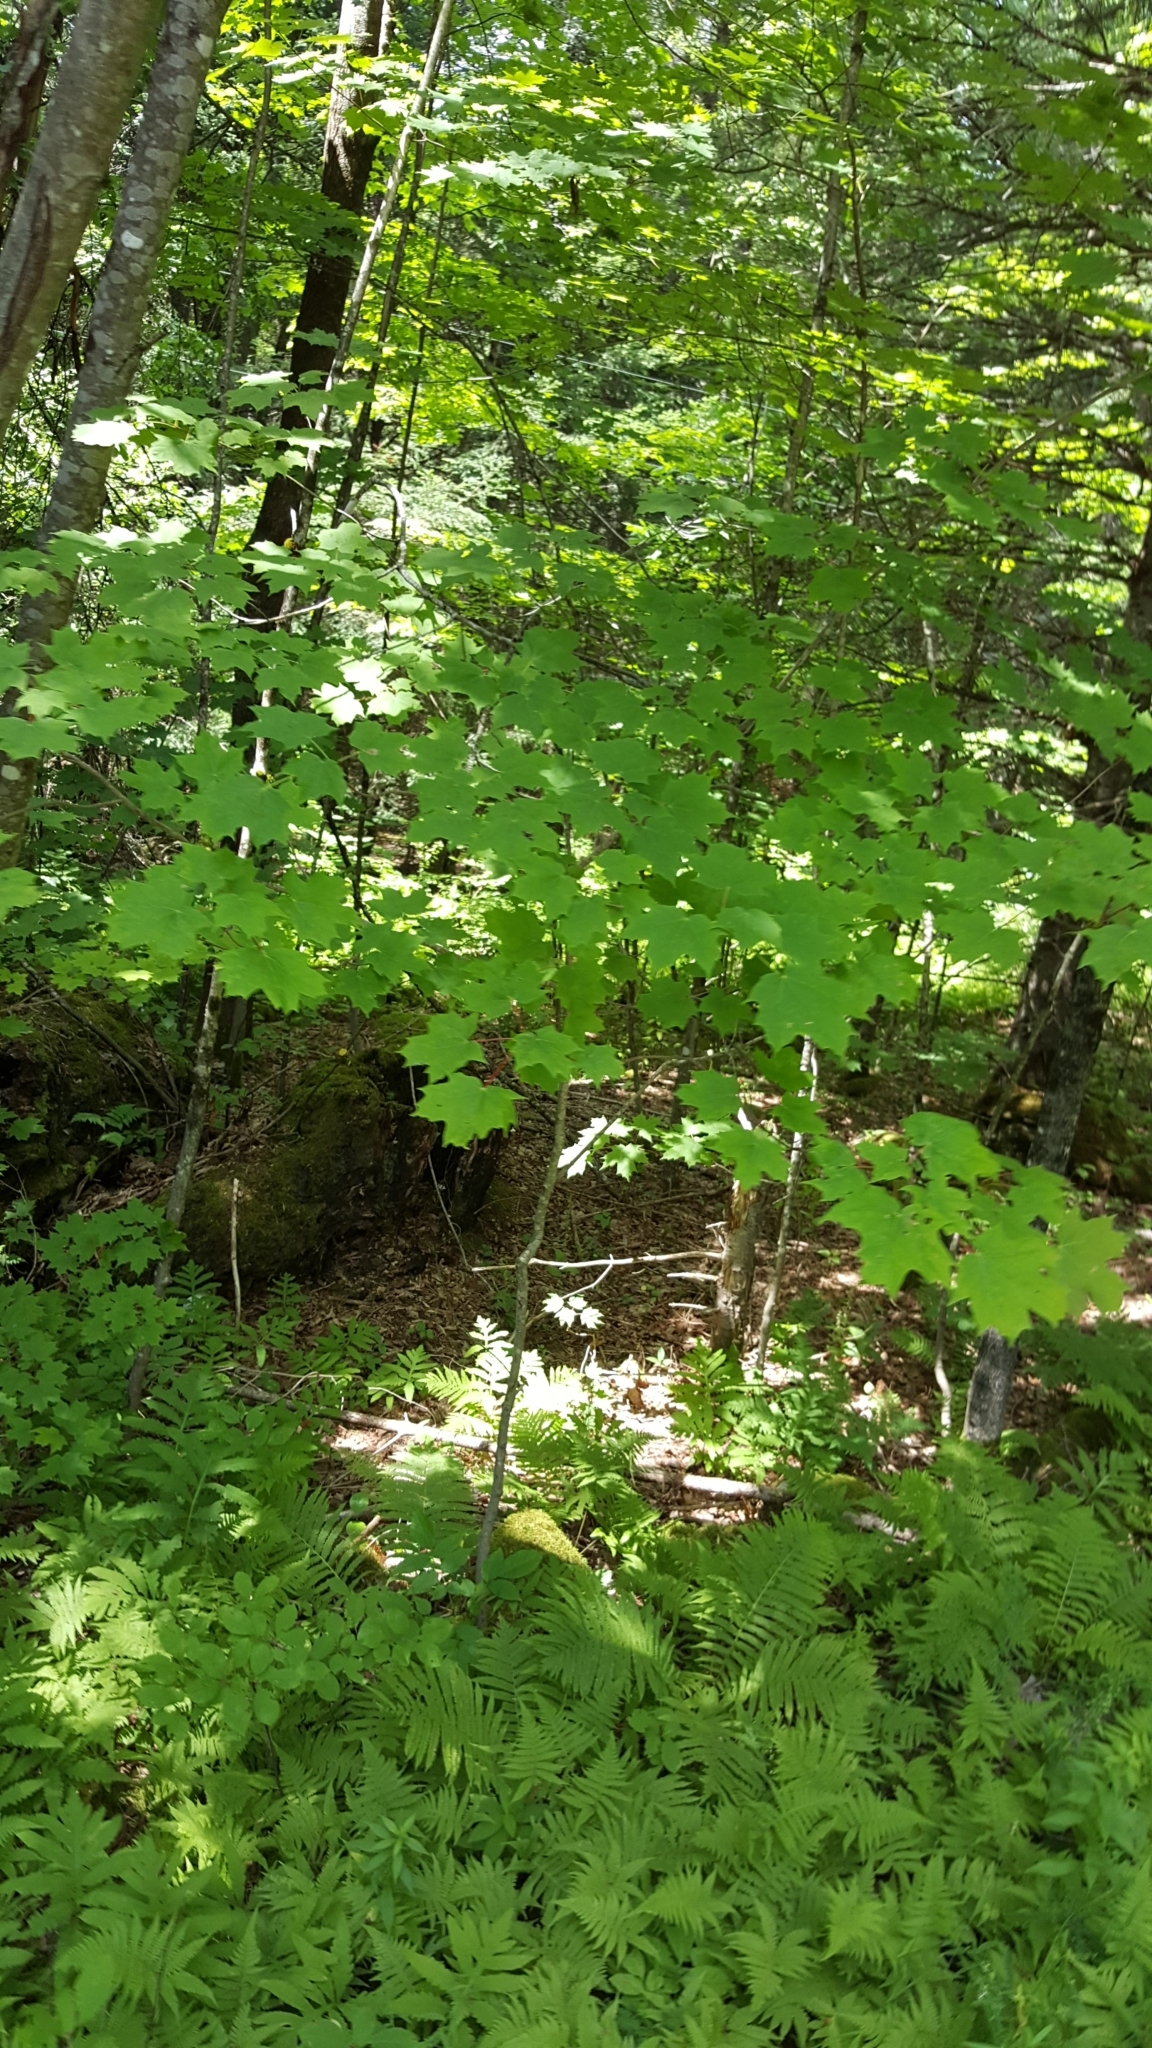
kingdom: Plantae
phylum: Tracheophyta
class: Magnoliopsida
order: Sapindales
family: Sapindaceae
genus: Acer
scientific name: Acer saccharum
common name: Sugar maple
